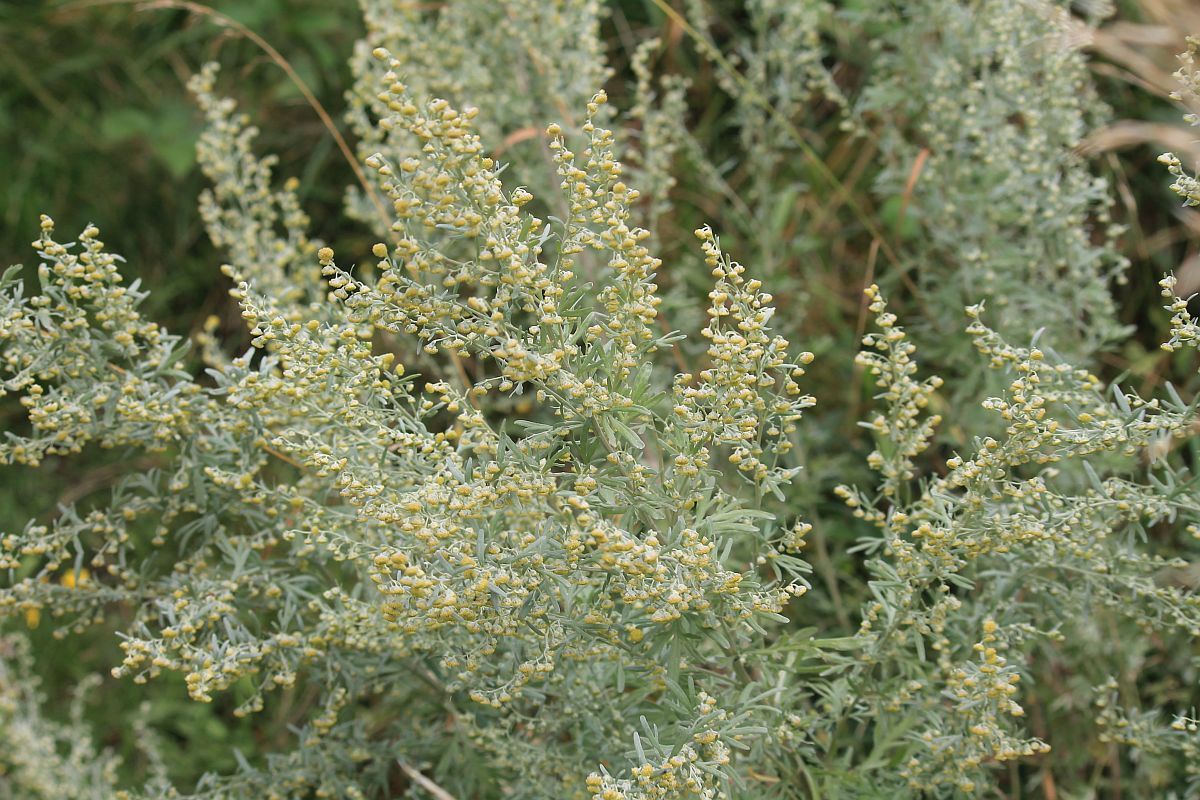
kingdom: Plantae
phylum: Tracheophyta
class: Magnoliopsida
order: Asterales
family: Asteraceae
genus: Artemisia
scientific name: Artemisia absinthium
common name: Wormwood
